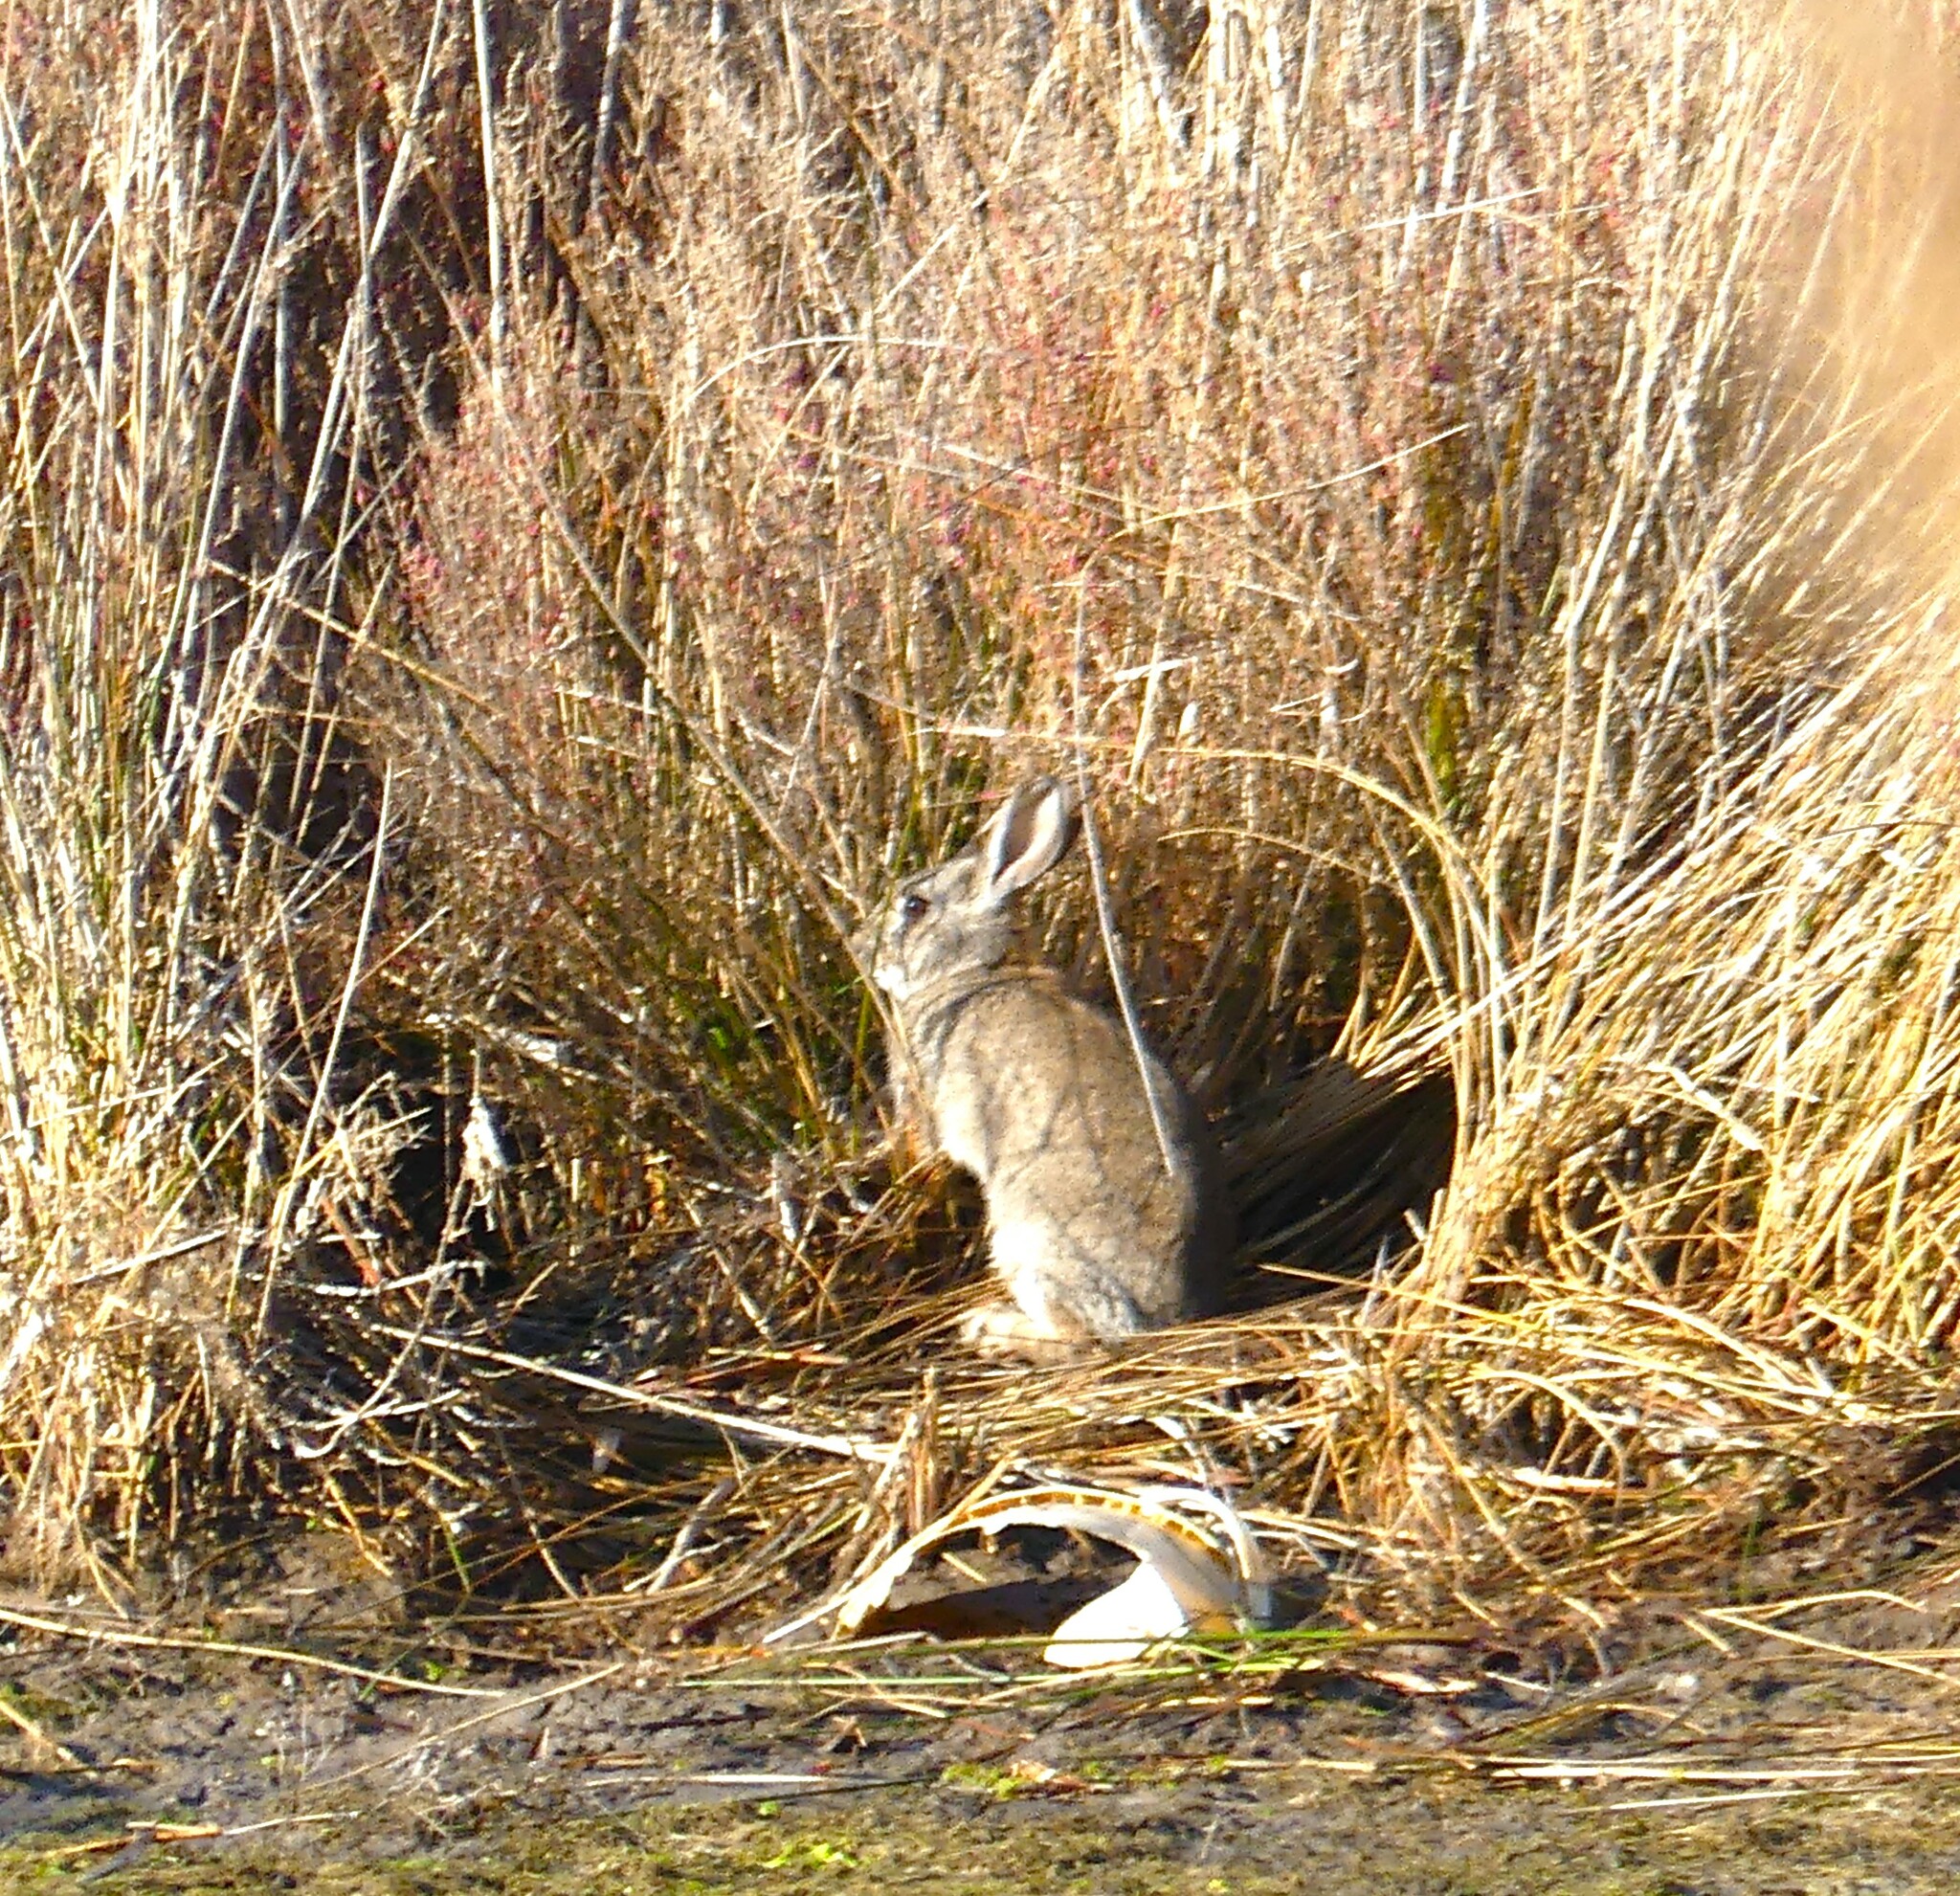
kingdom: Animalia
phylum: Chordata
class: Mammalia
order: Lagomorpha
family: Leporidae
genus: Oryctolagus
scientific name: Oryctolagus cuniculus
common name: European rabbit
